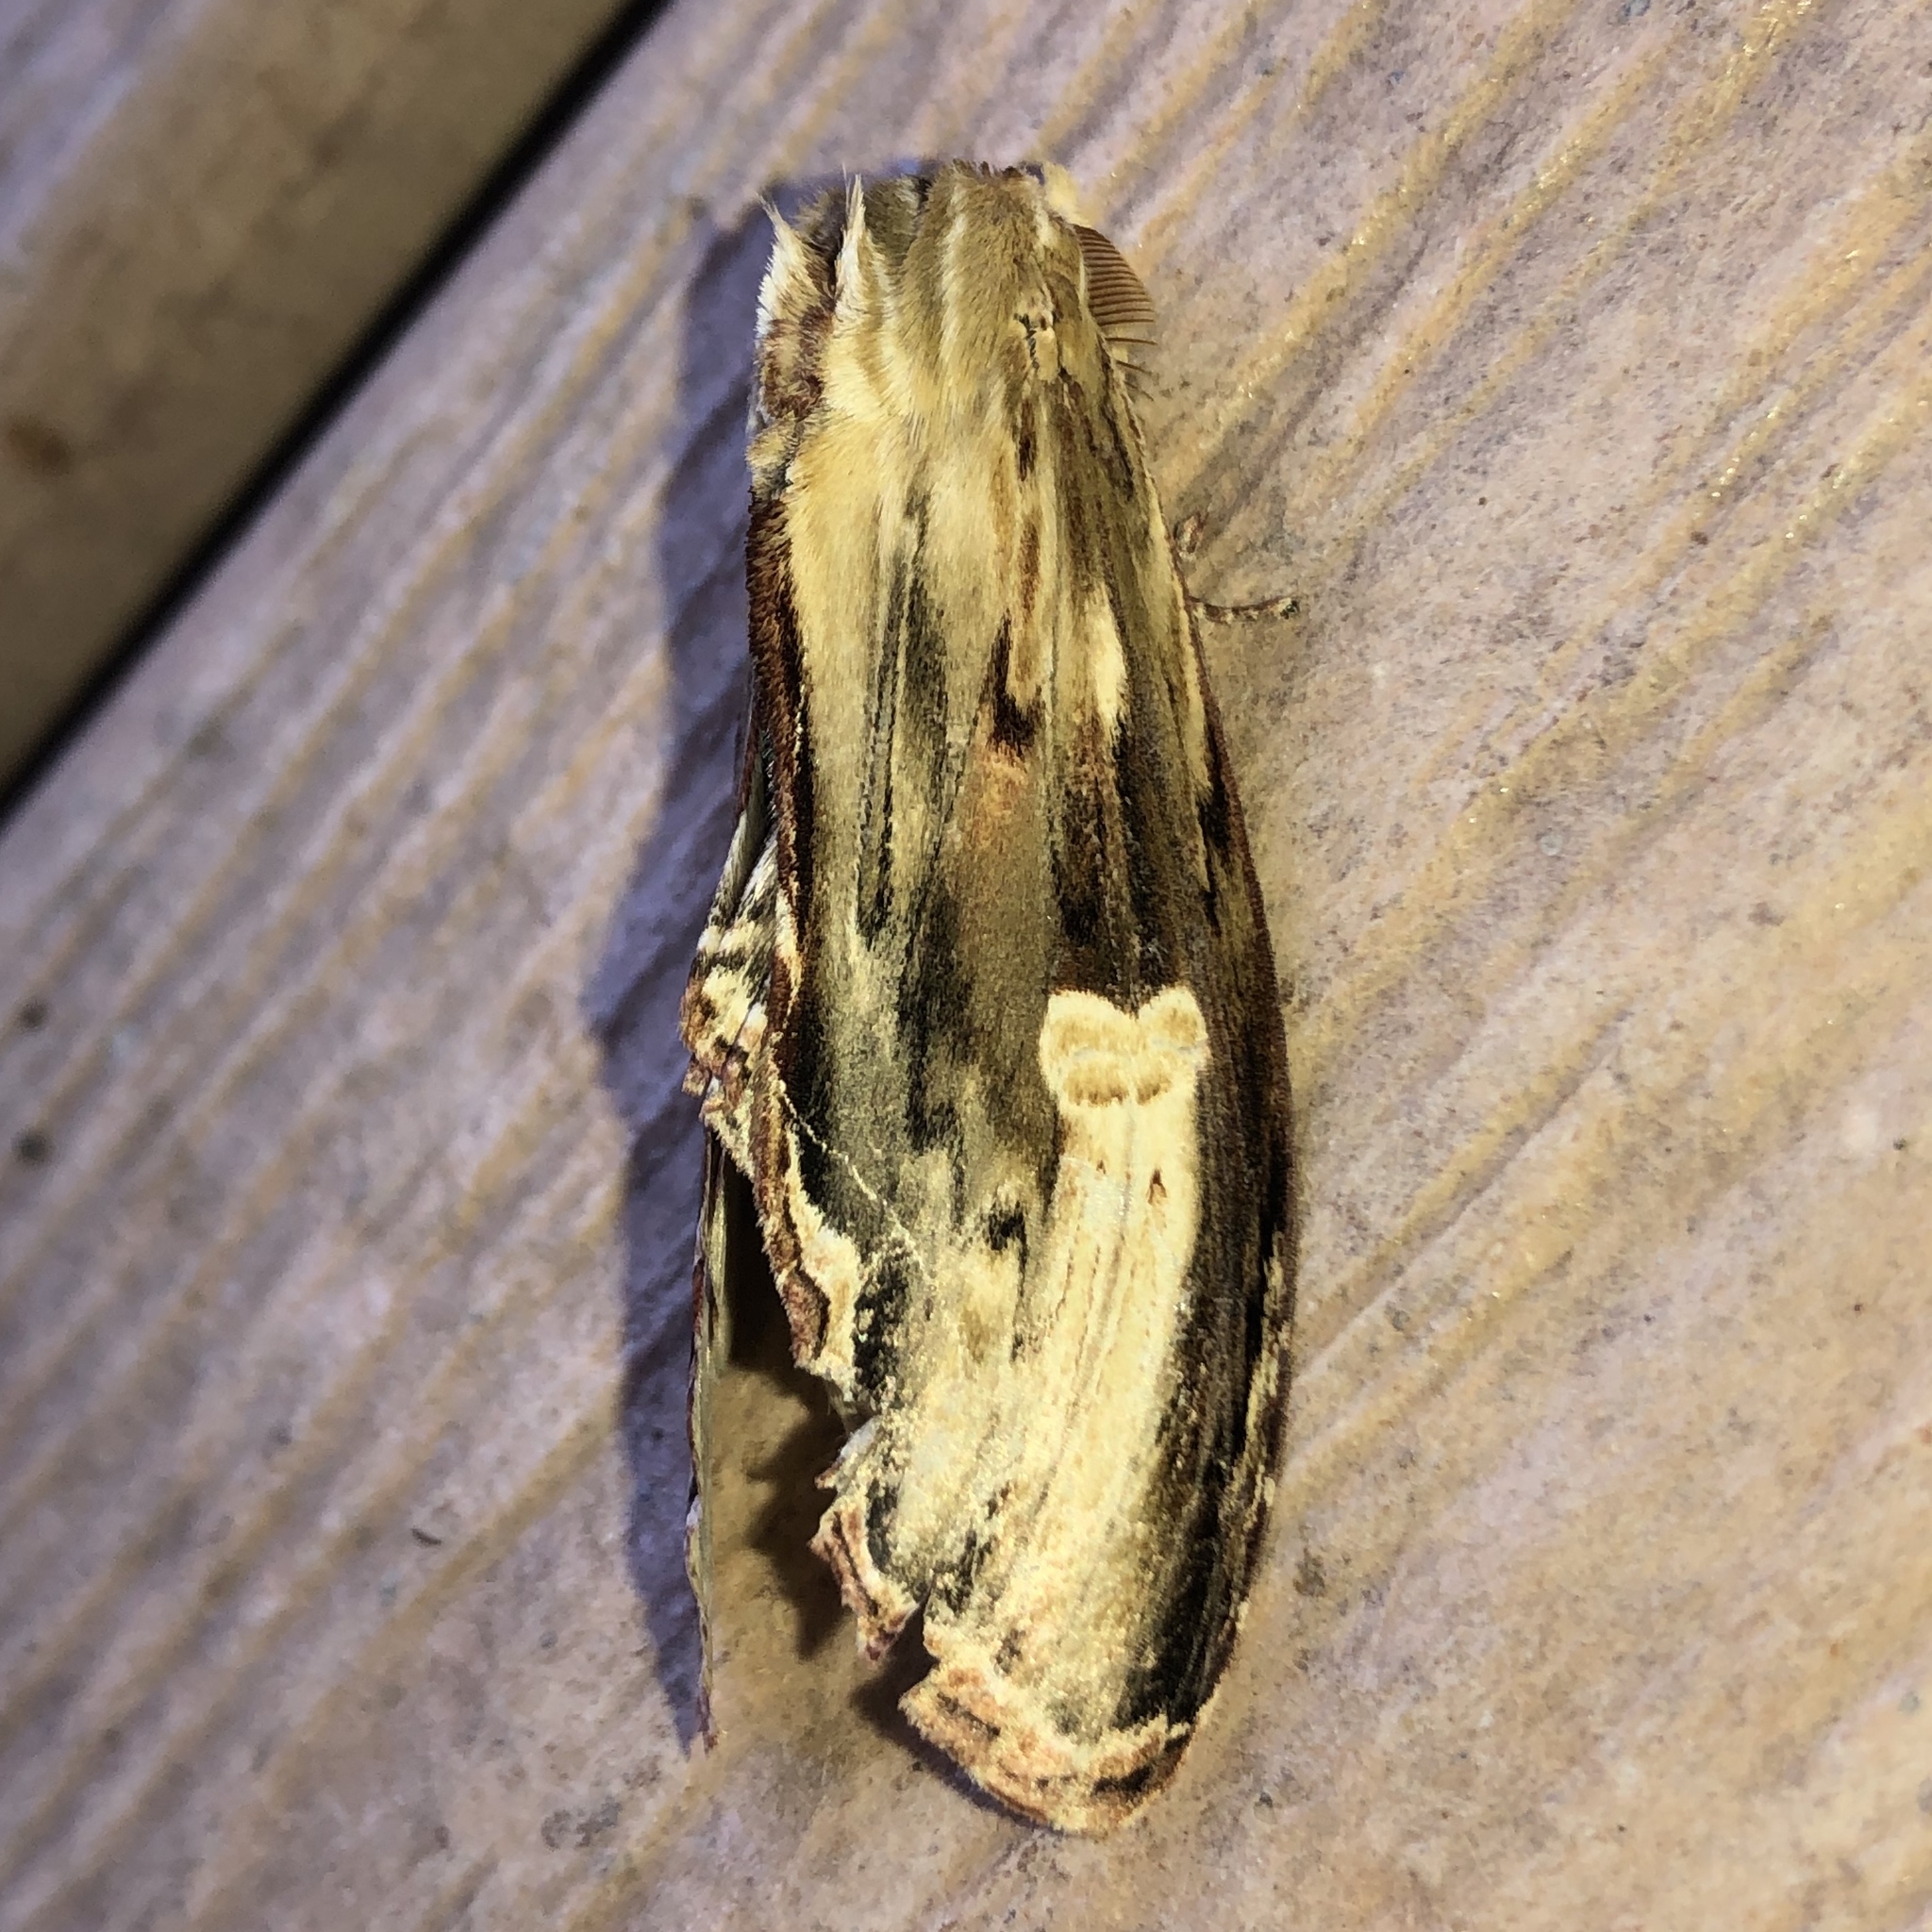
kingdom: Animalia
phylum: Arthropoda
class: Insecta
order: Lepidoptera
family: Notodontidae
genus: Truncaptera
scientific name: Truncaptera
